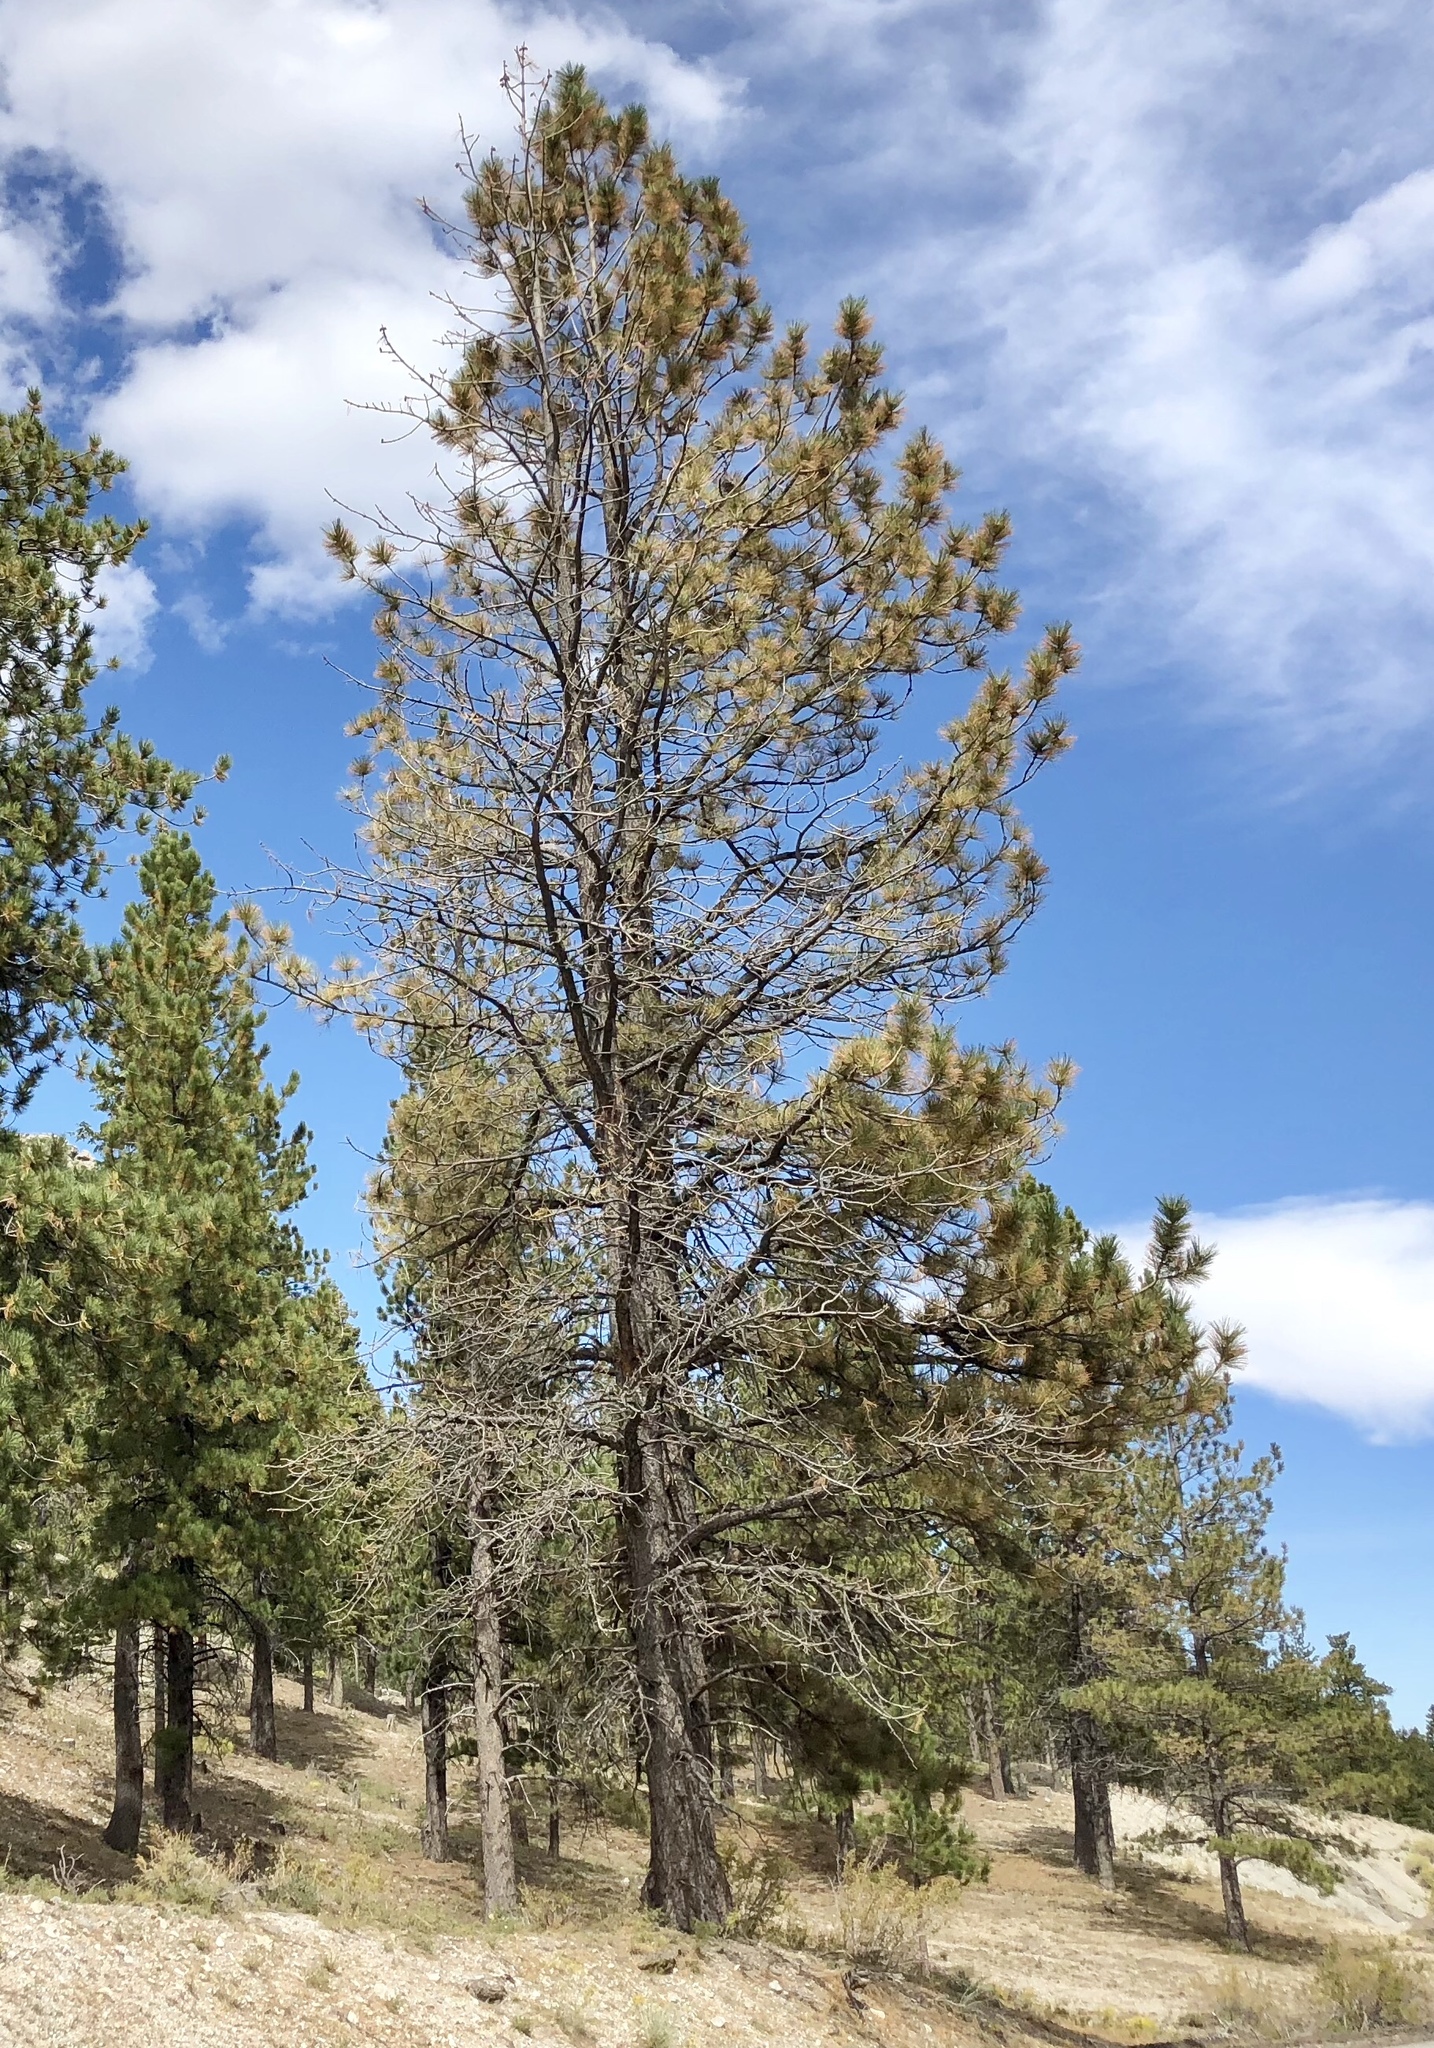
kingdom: Plantae
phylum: Tracheophyta
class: Pinopsida
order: Pinales
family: Pinaceae
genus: Pinus
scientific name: Pinus ponderosa
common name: Western yellow-pine
